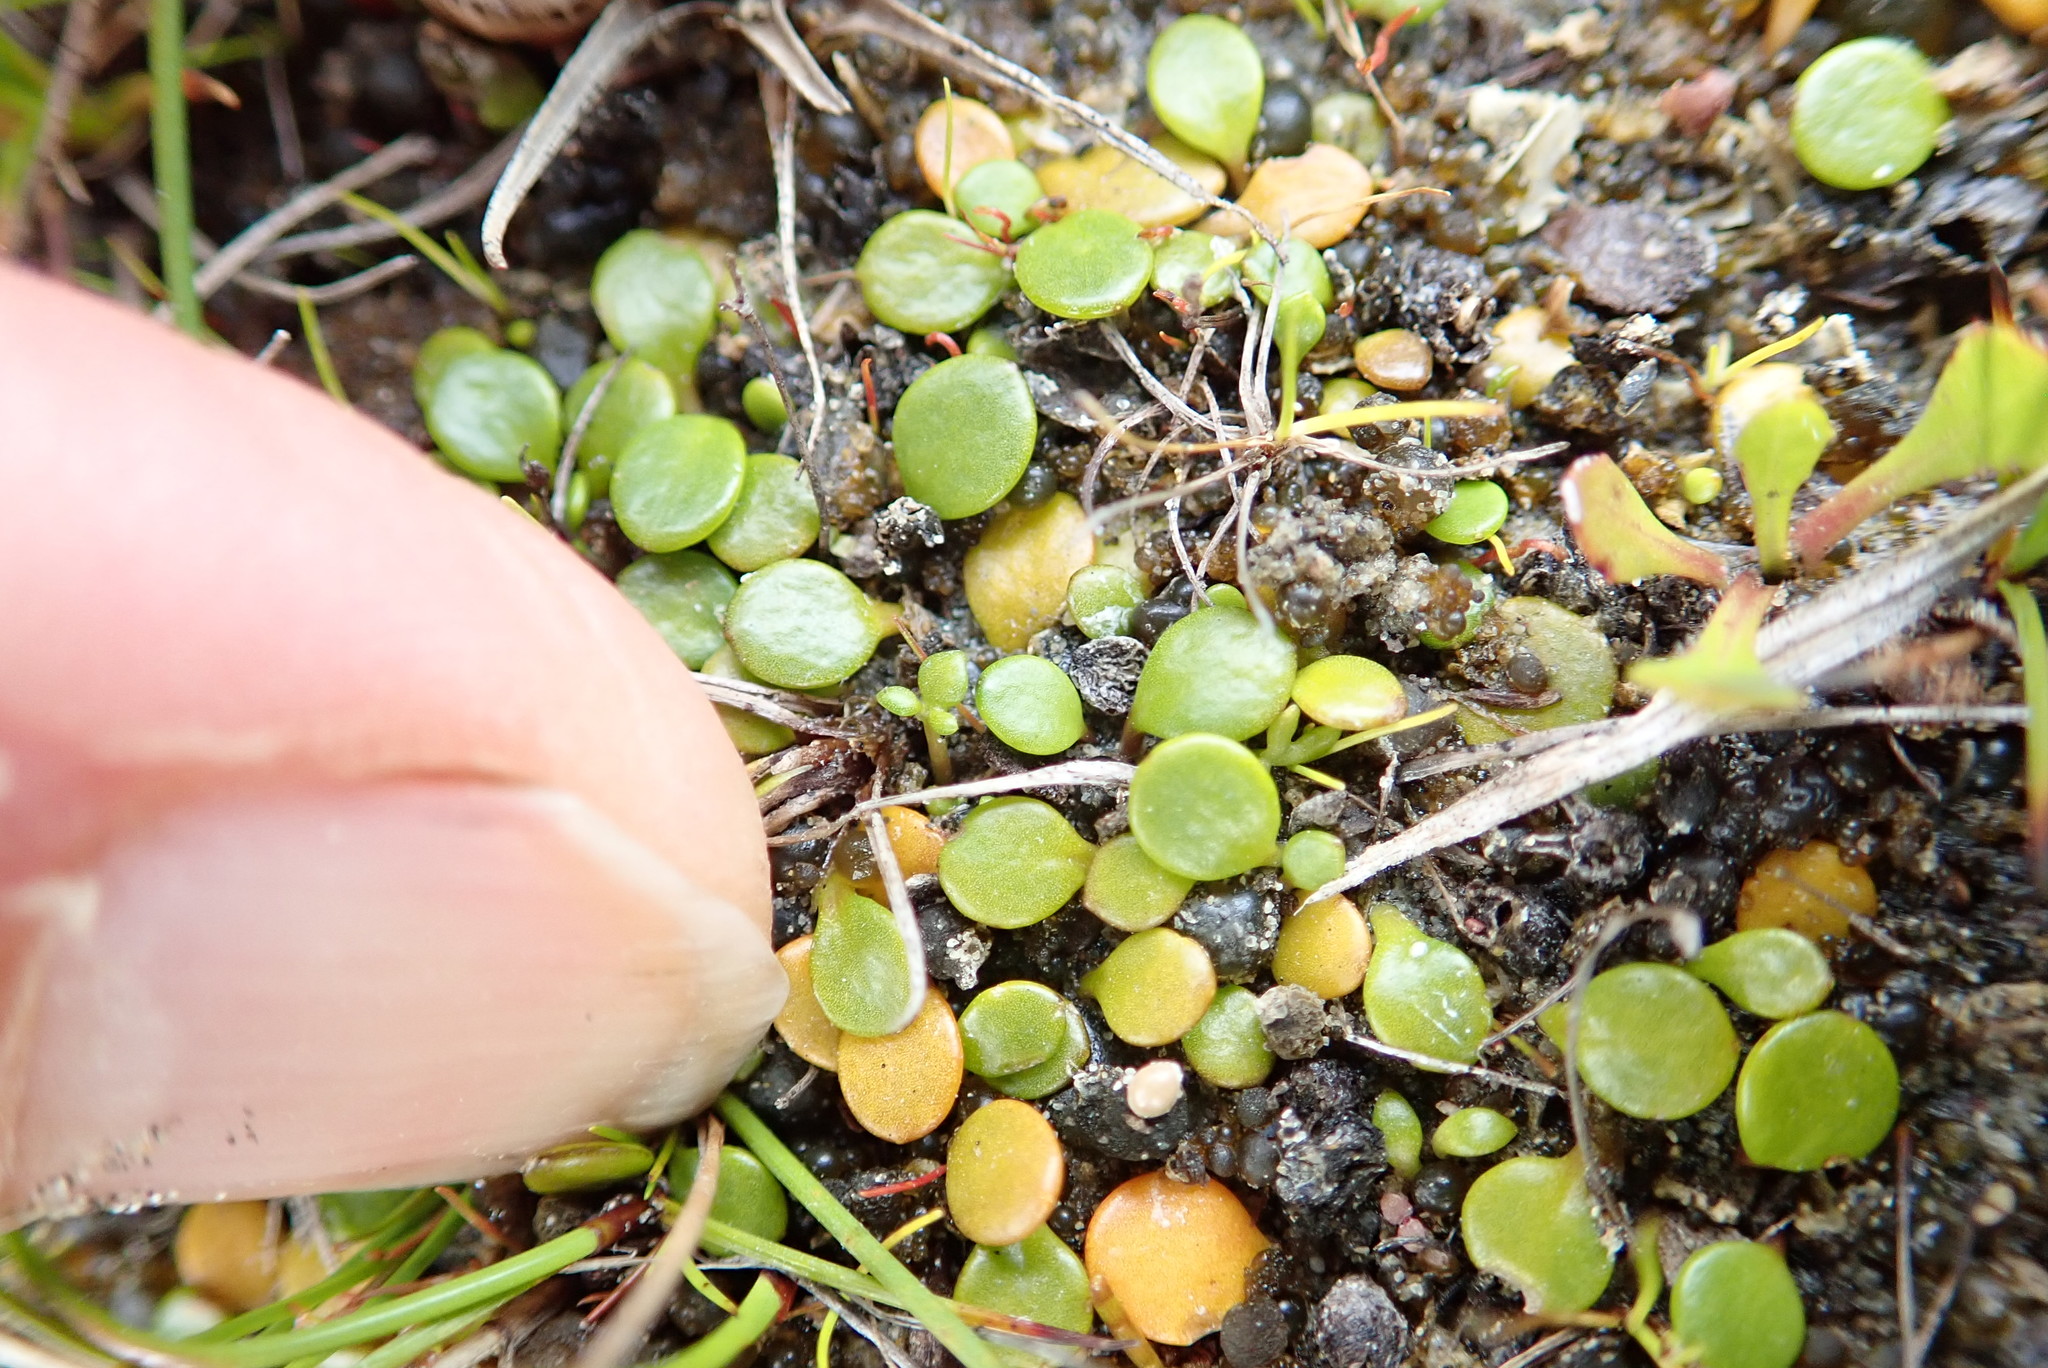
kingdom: Plantae
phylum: Tracheophyta
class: Magnoliopsida
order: Ranunculales
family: Ranunculaceae
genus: Ranunculus
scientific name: Ranunculus acaulis
